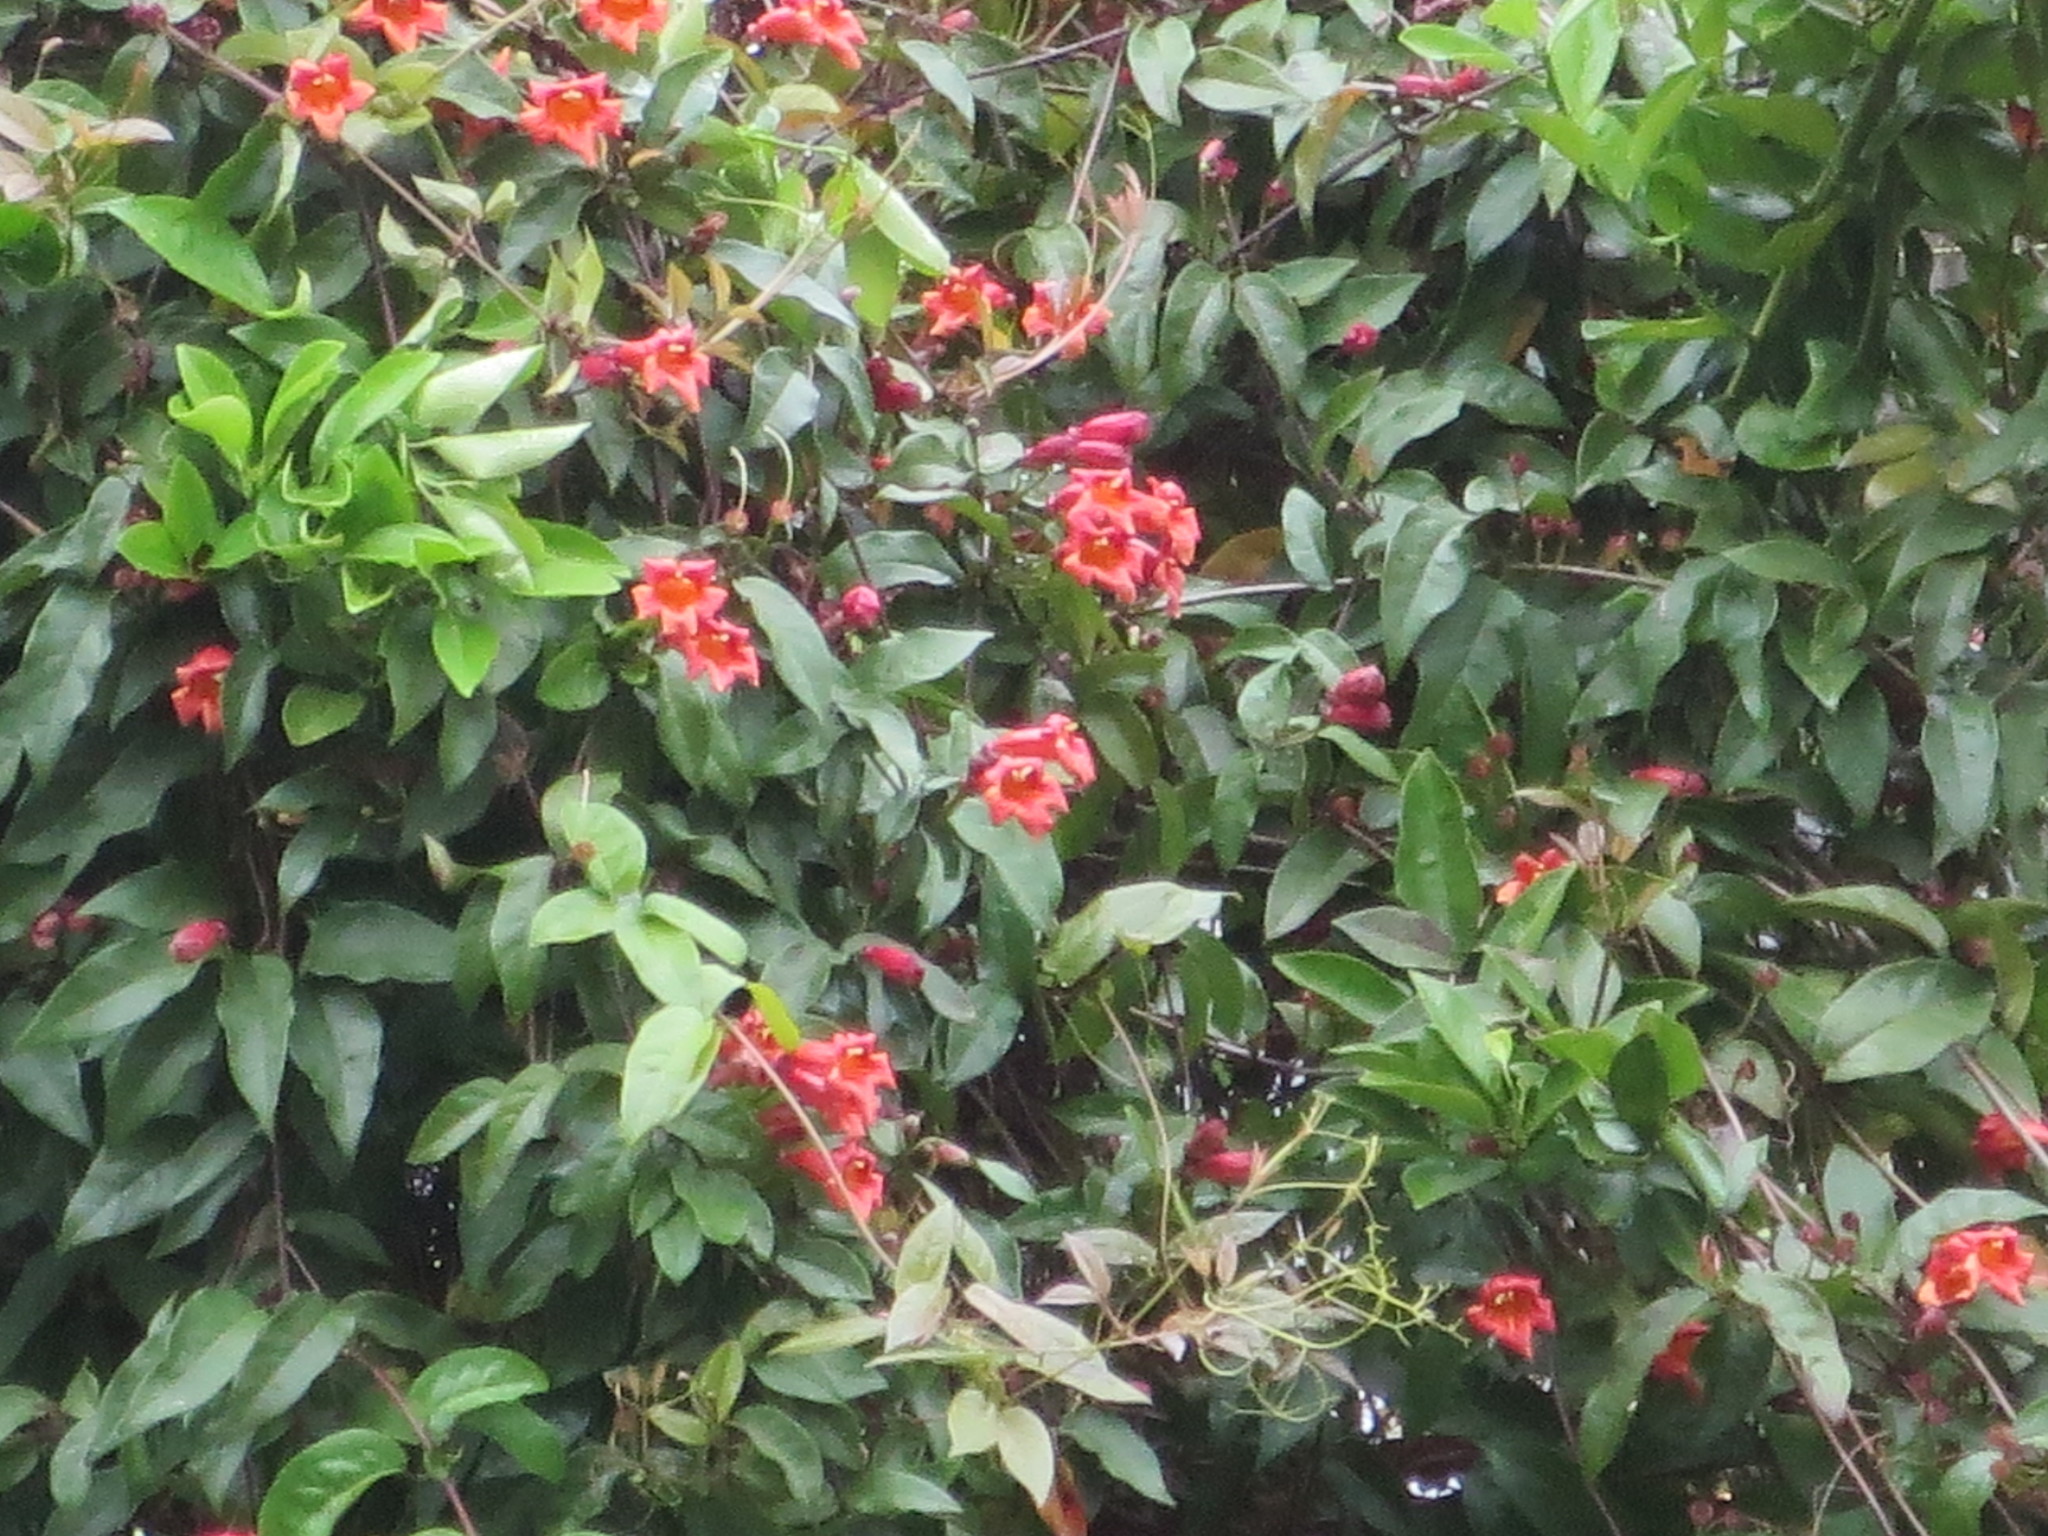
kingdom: Plantae
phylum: Tracheophyta
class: Magnoliopsida
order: Lamiales
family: Bignoniaceae
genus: Bignonia
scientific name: Bignonia capreolata
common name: Crossvine
